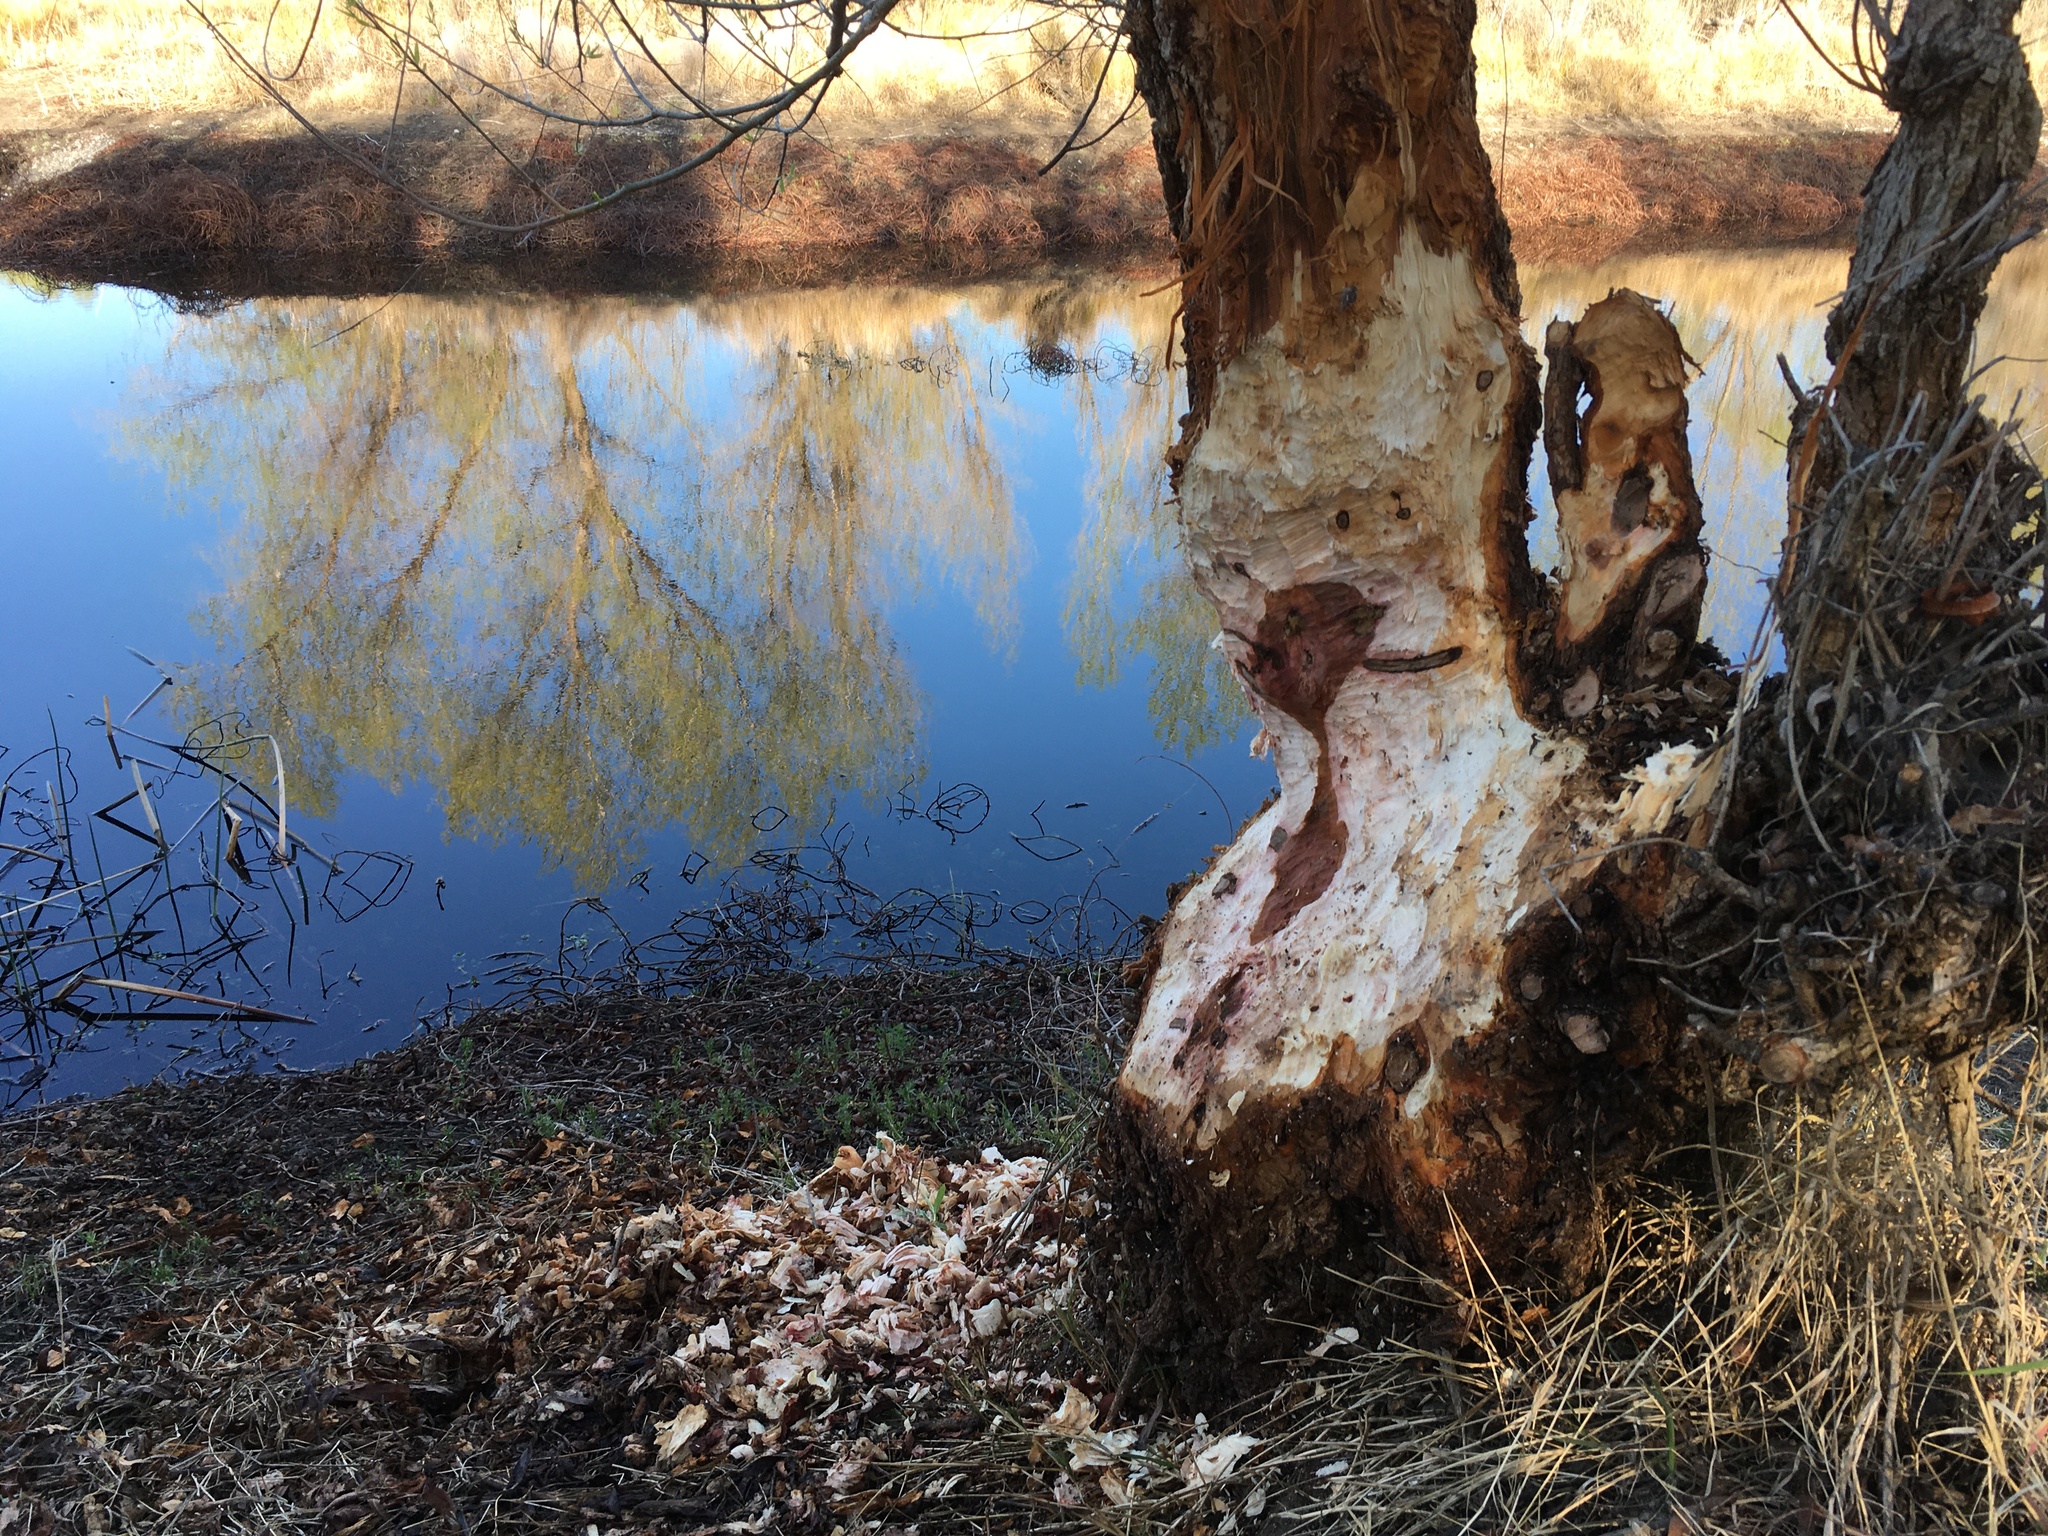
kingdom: Animalia
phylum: Chordata
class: Mammalia
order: Rodentia
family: Castoridae
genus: Castor
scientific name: Castor canadensis
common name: American beaver
